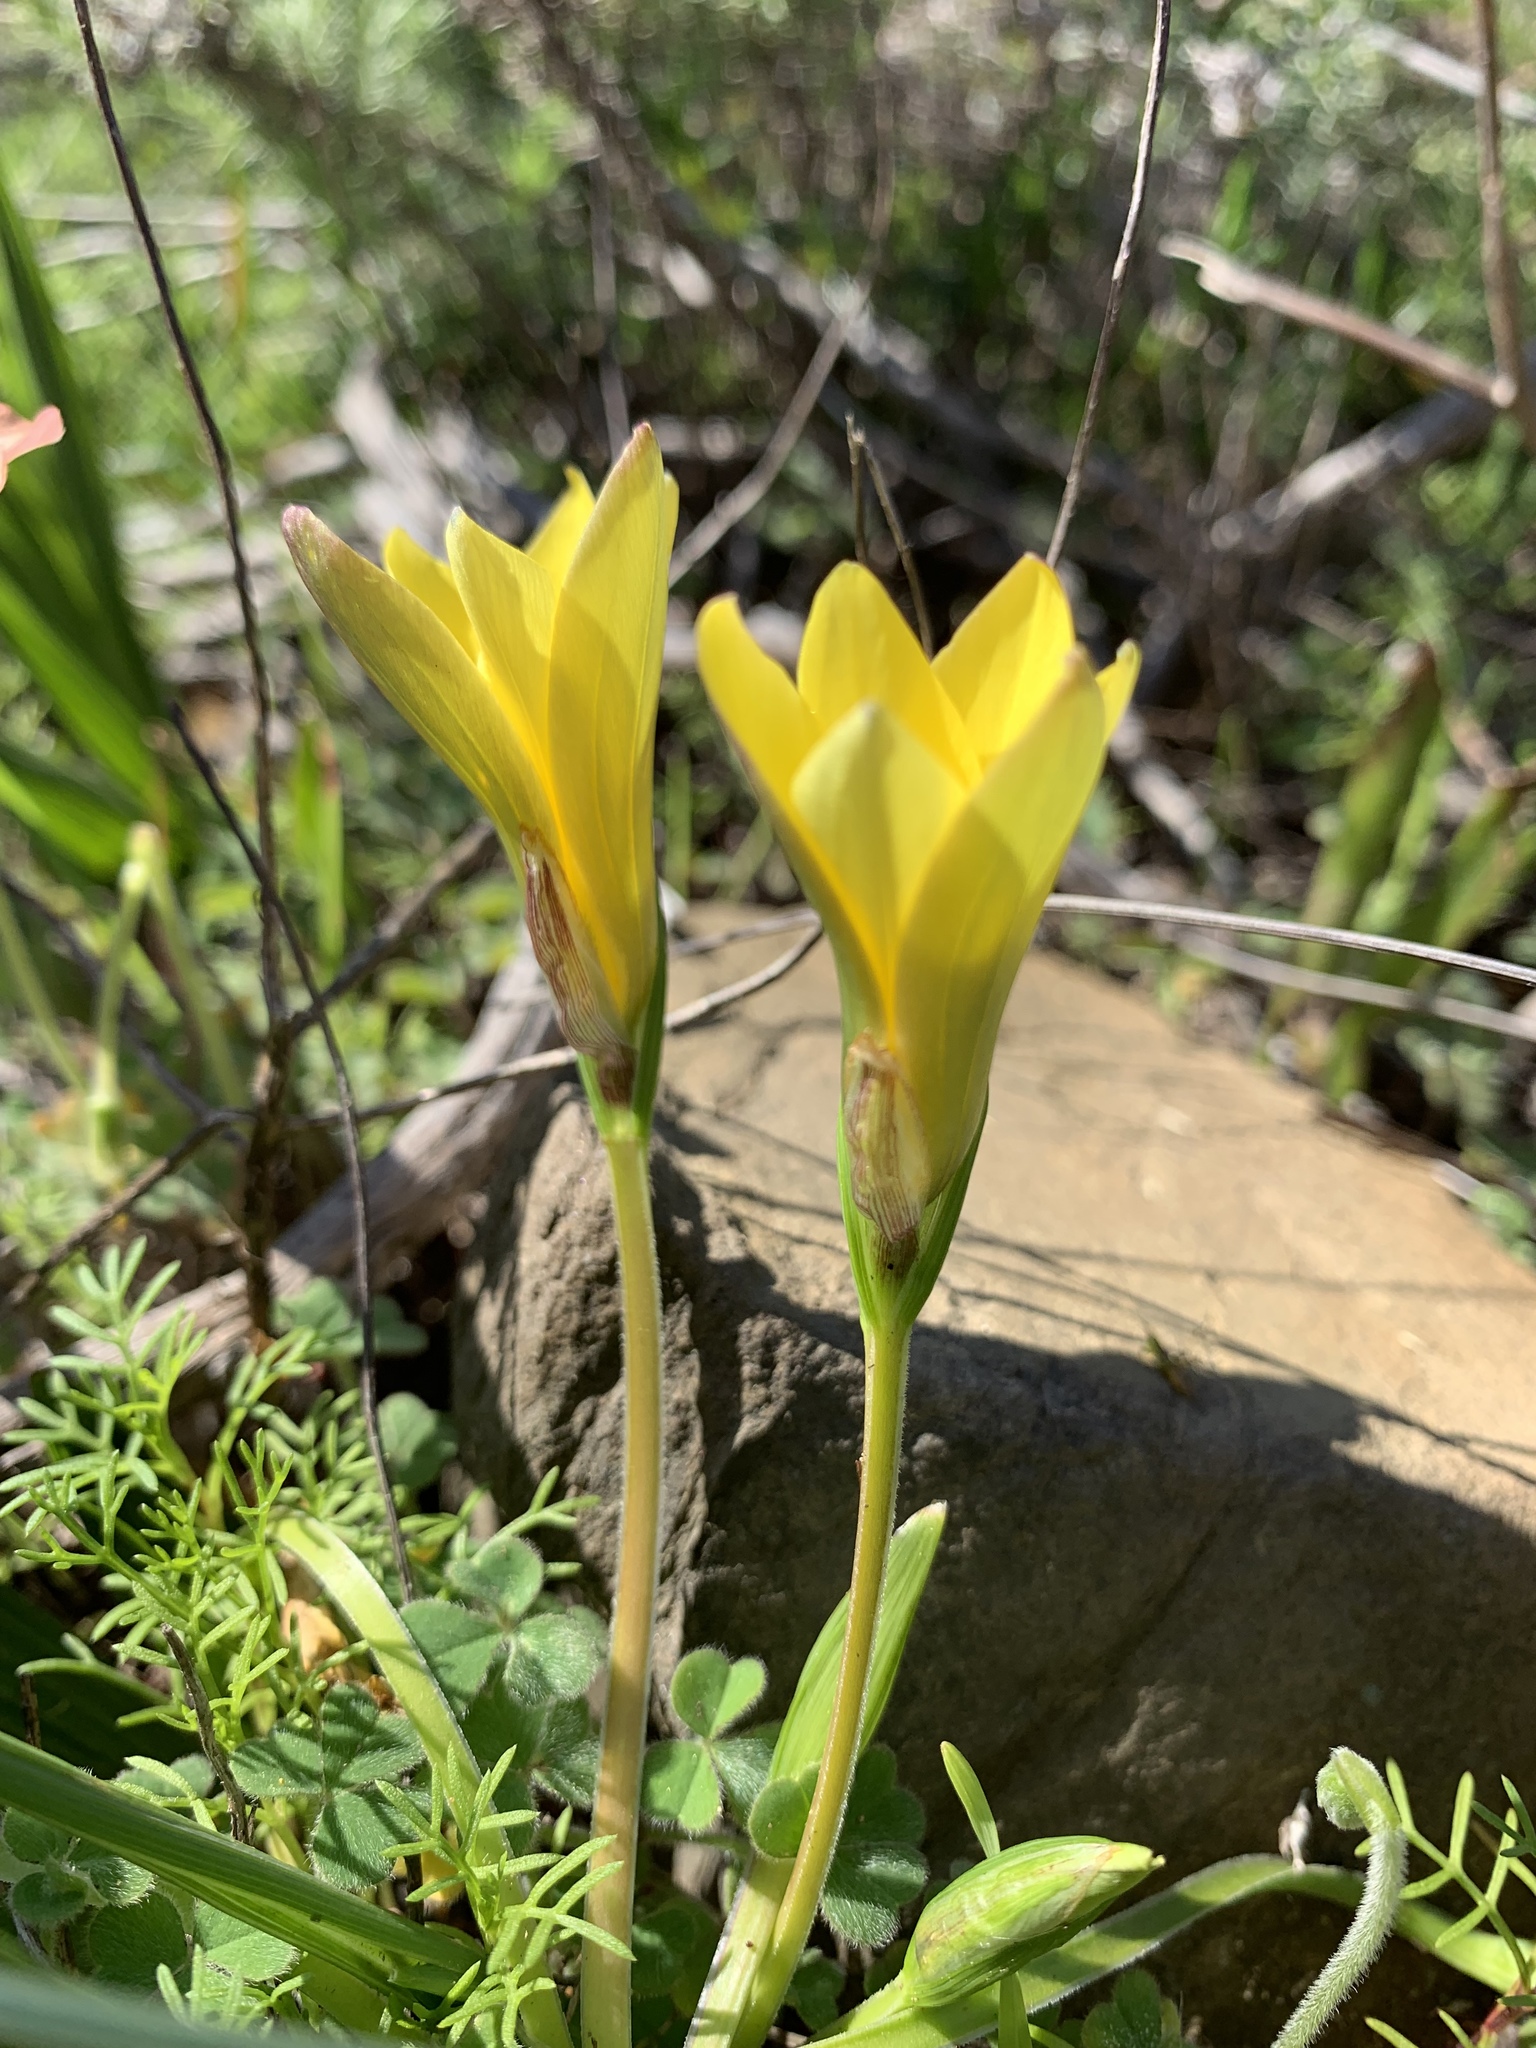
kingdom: Plantae
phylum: Tracheophyta
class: Liliopsida
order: Asparagales
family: Iridaceae
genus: Romulea
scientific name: Romulea flava
